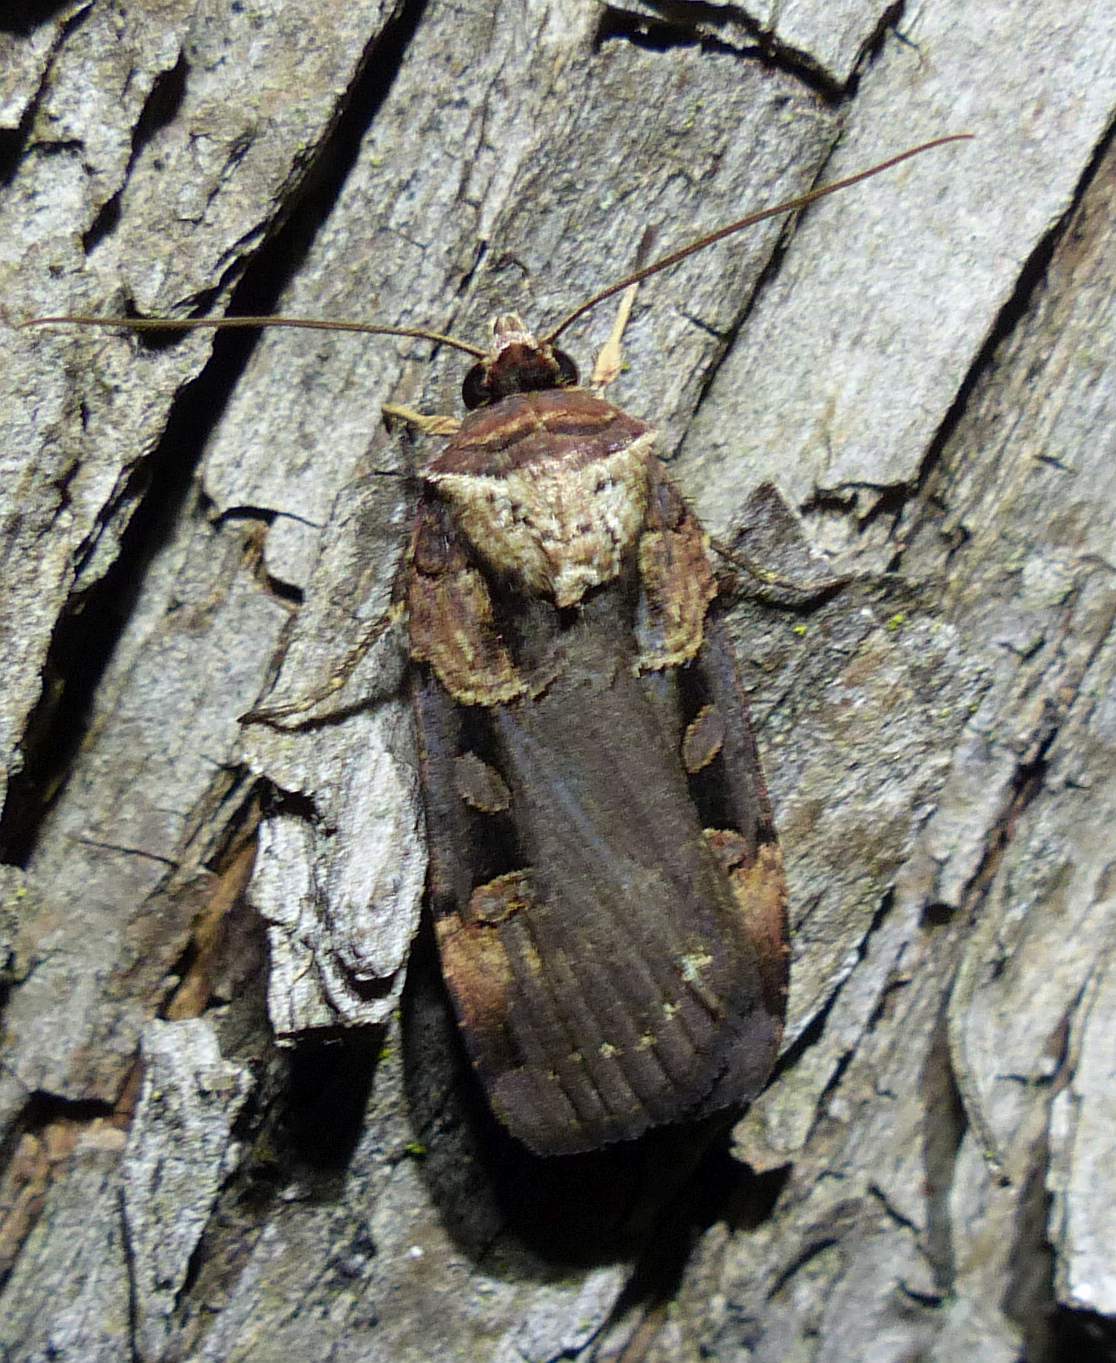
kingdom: Animalia
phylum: Arthropoda
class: Insecta
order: Lepidoptera
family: Noctuidae
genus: Pseudohermonassa
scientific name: Pseudohermonassa bicarnea
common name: Pink spotted dart
